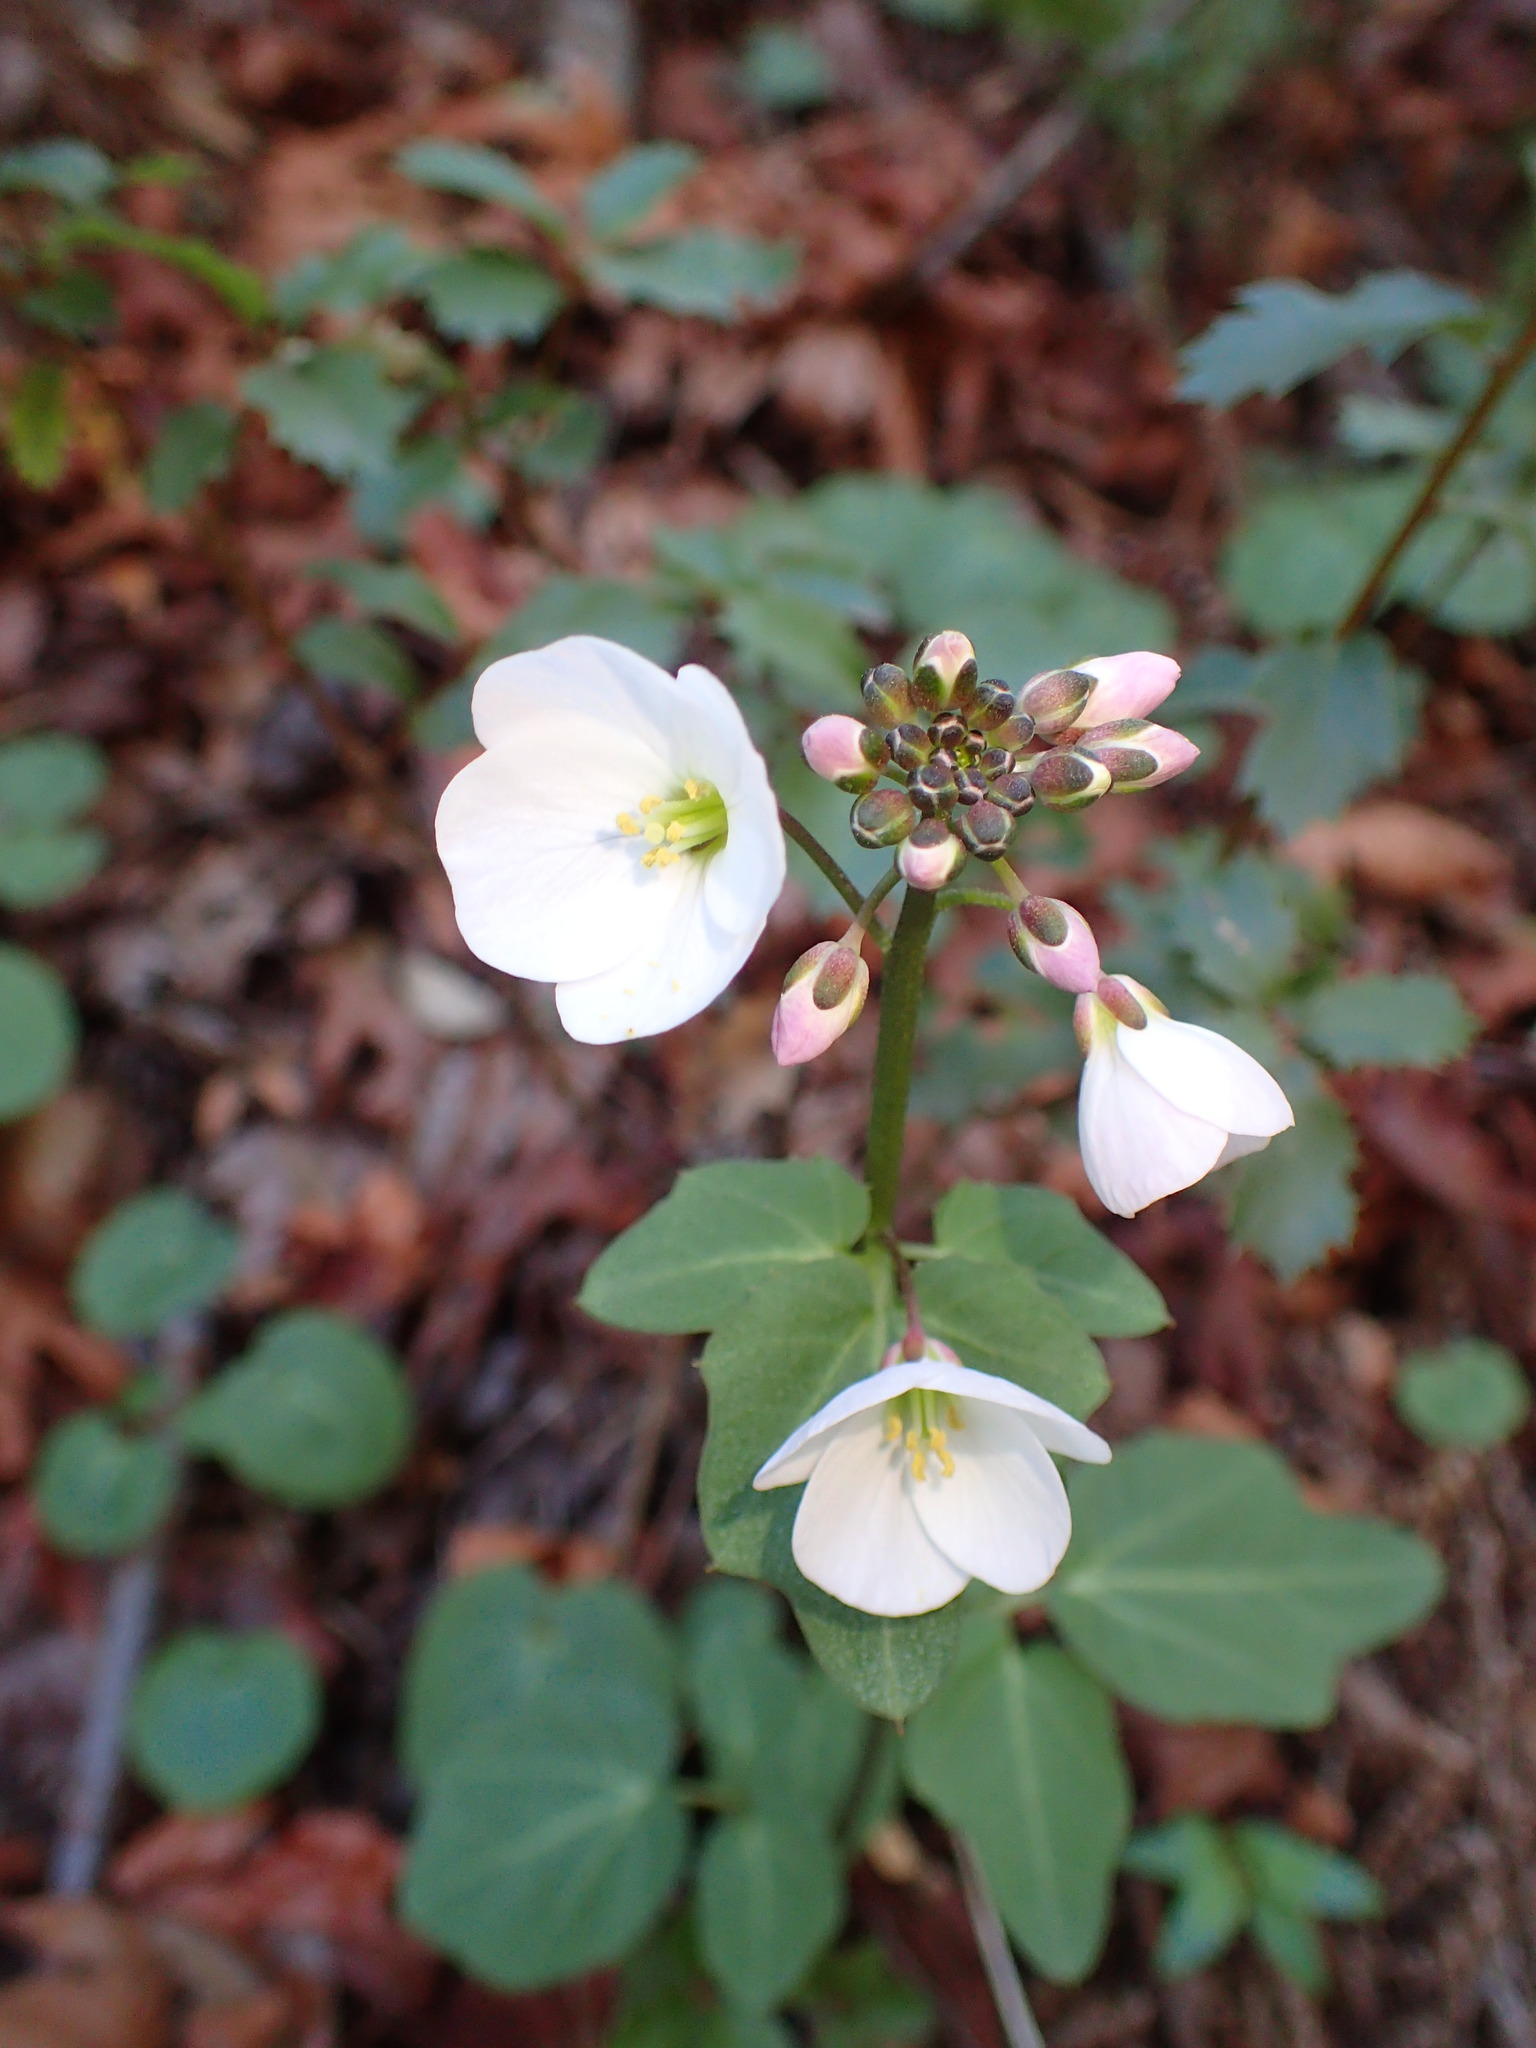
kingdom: Plantae
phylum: Tracheophyta
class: Magnoliopsida
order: Brassicales
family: Brassicaceae
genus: Cardamine
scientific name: Cardamine californica
